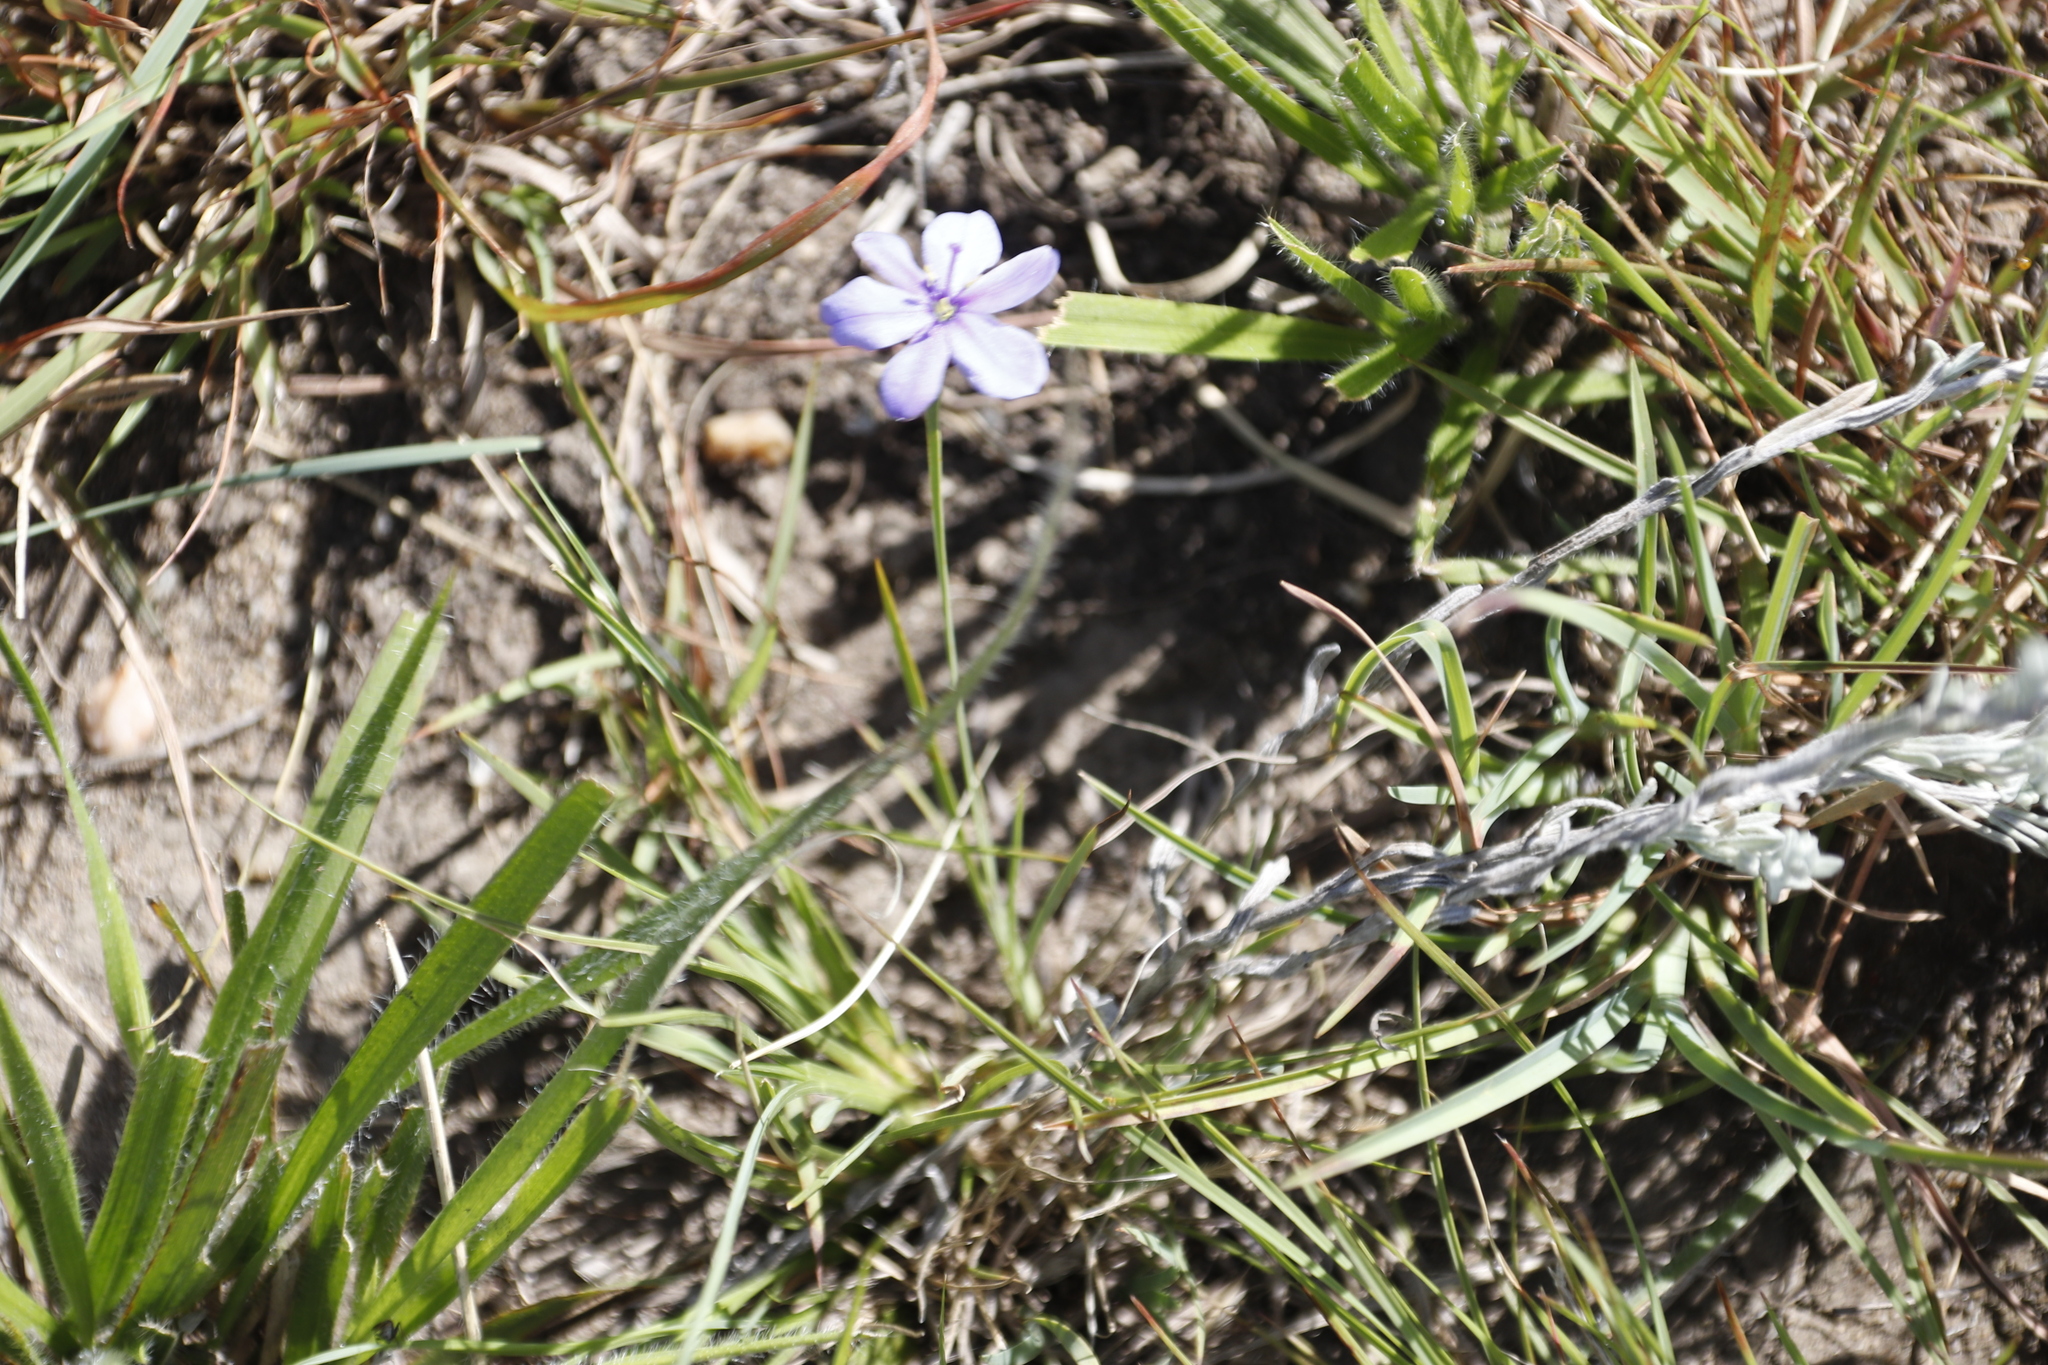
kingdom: Plantae
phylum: Tracheophyta
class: Liliopsida
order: Asparagales
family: Iridaceae
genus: Aristea
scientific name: Aristea abyssinica
